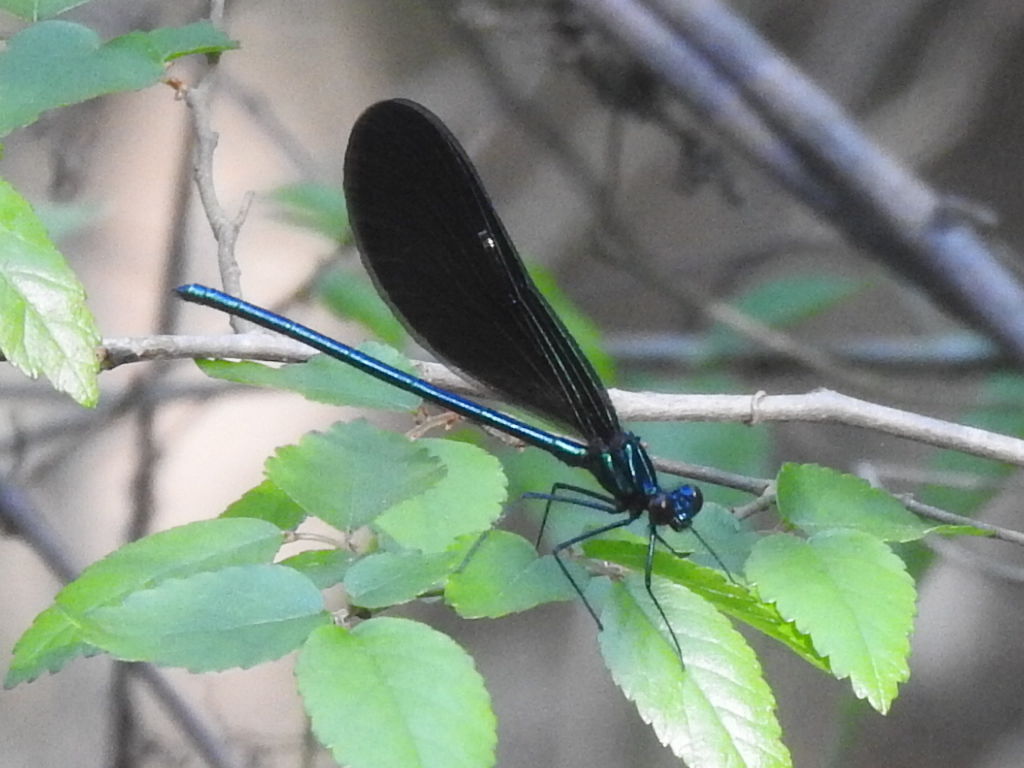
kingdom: Animalia
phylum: Arthropoda
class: Insecta
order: Odonata
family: Calopterygidae
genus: Calopteryx
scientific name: Calopteryx maculata
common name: Ebony jewelwing
